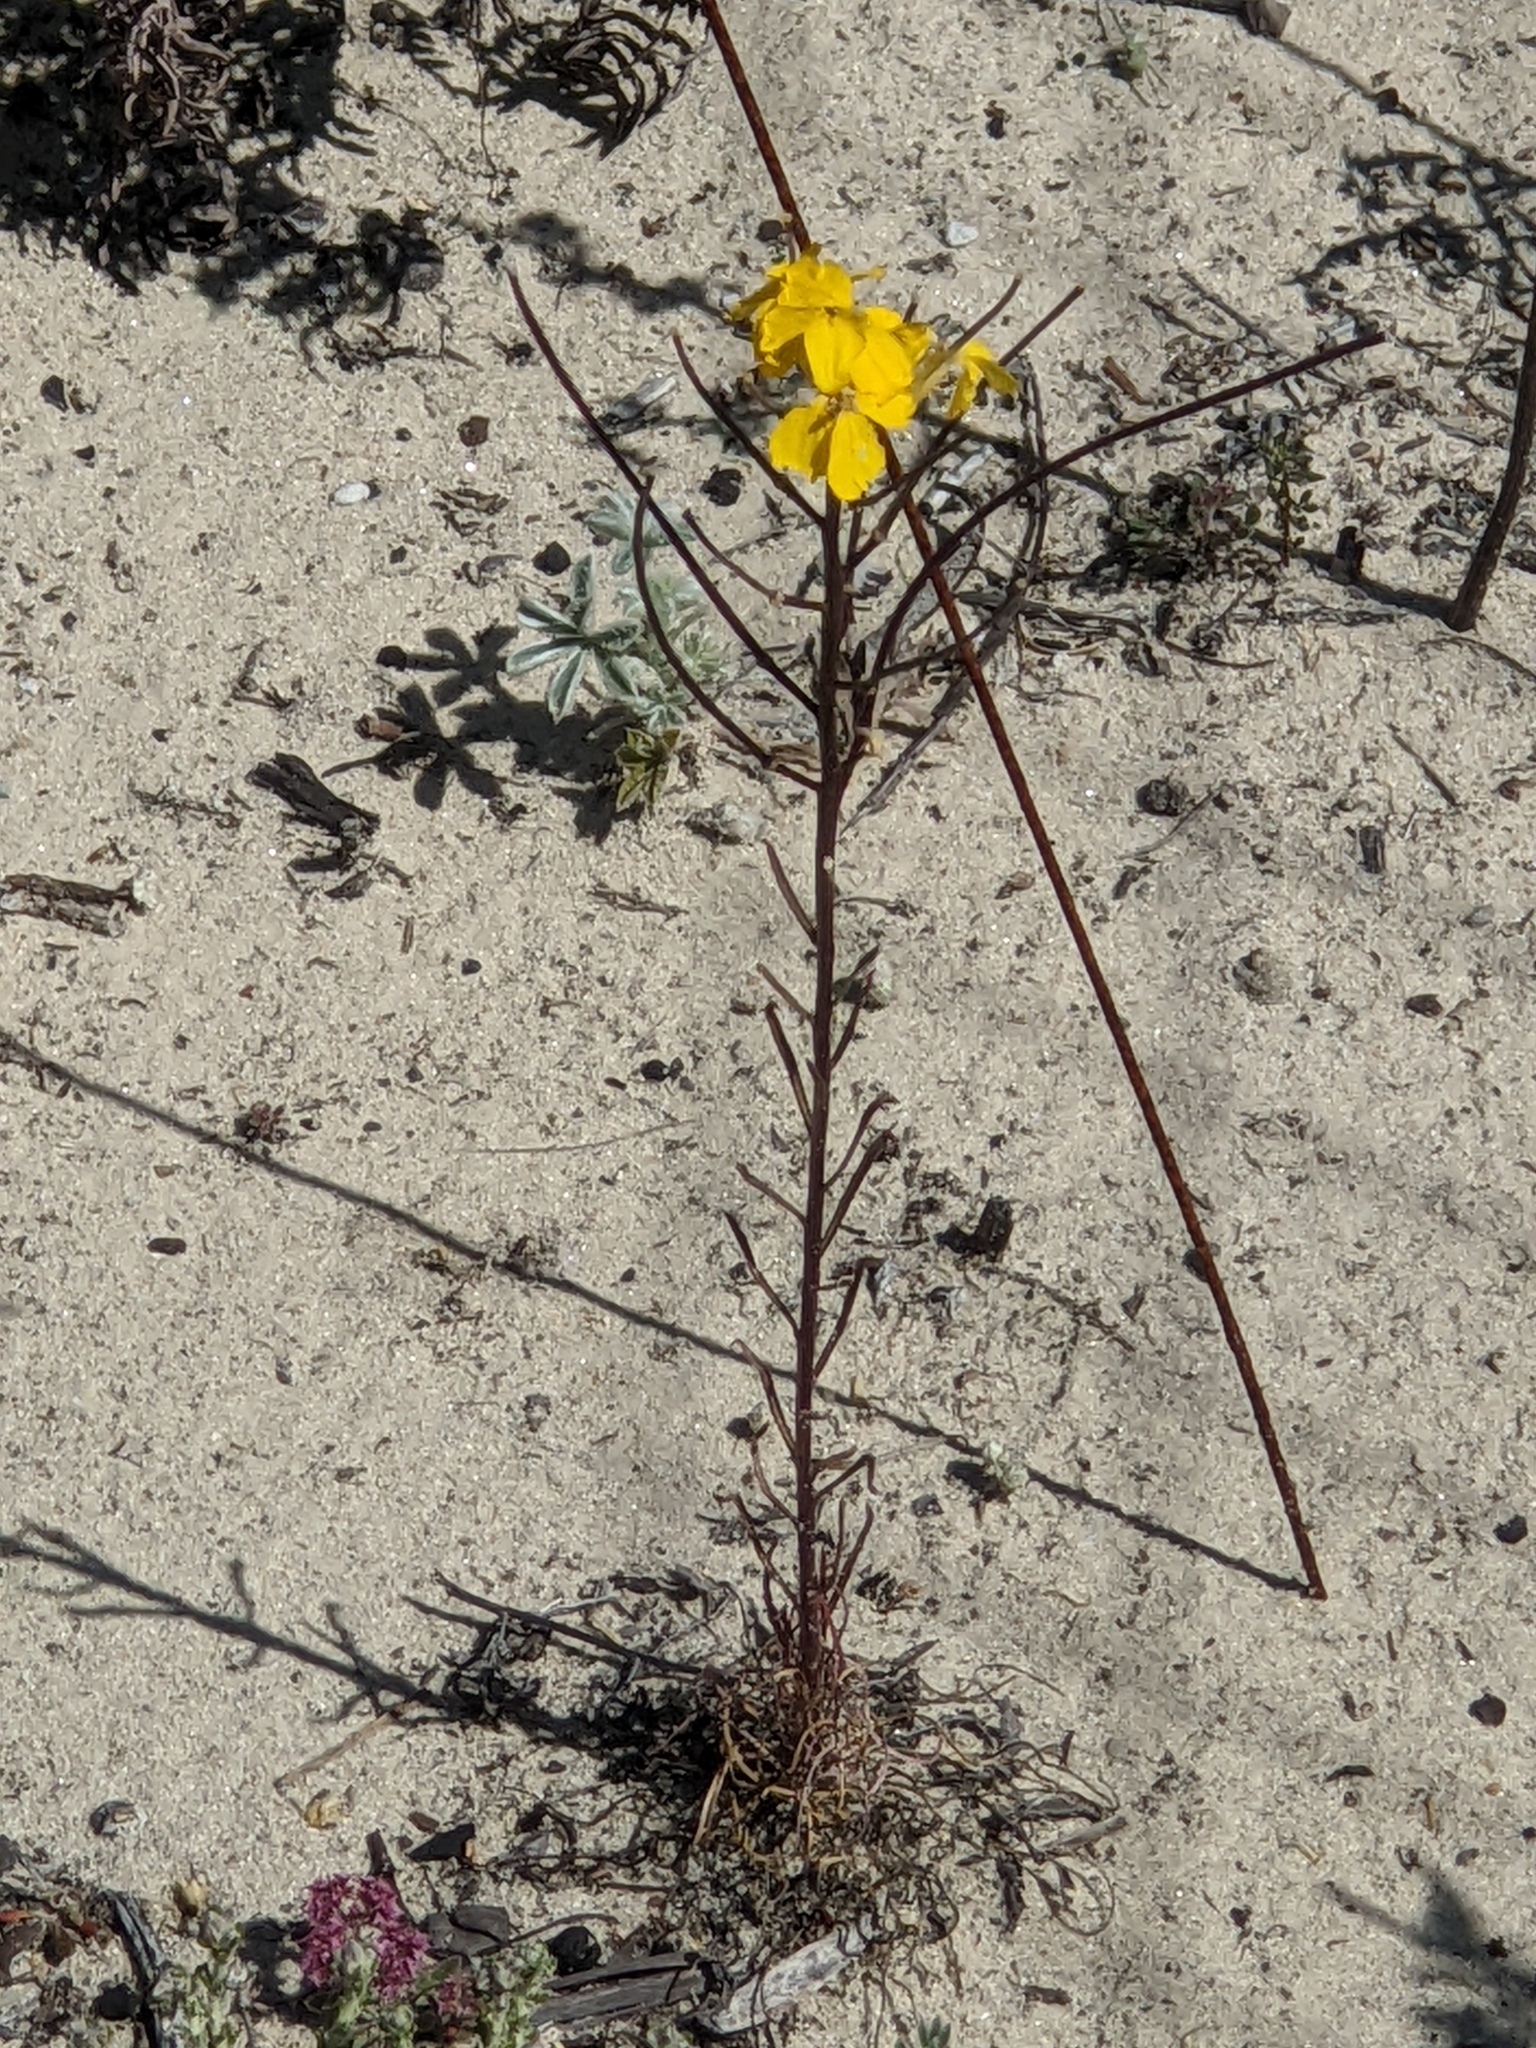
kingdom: Plantae
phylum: Tracheophyta
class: Magnoliopsida
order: Brassicales
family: Brassicaceae
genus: Erysimum
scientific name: Erysimum teretifolium
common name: Ben lomond wallflower
